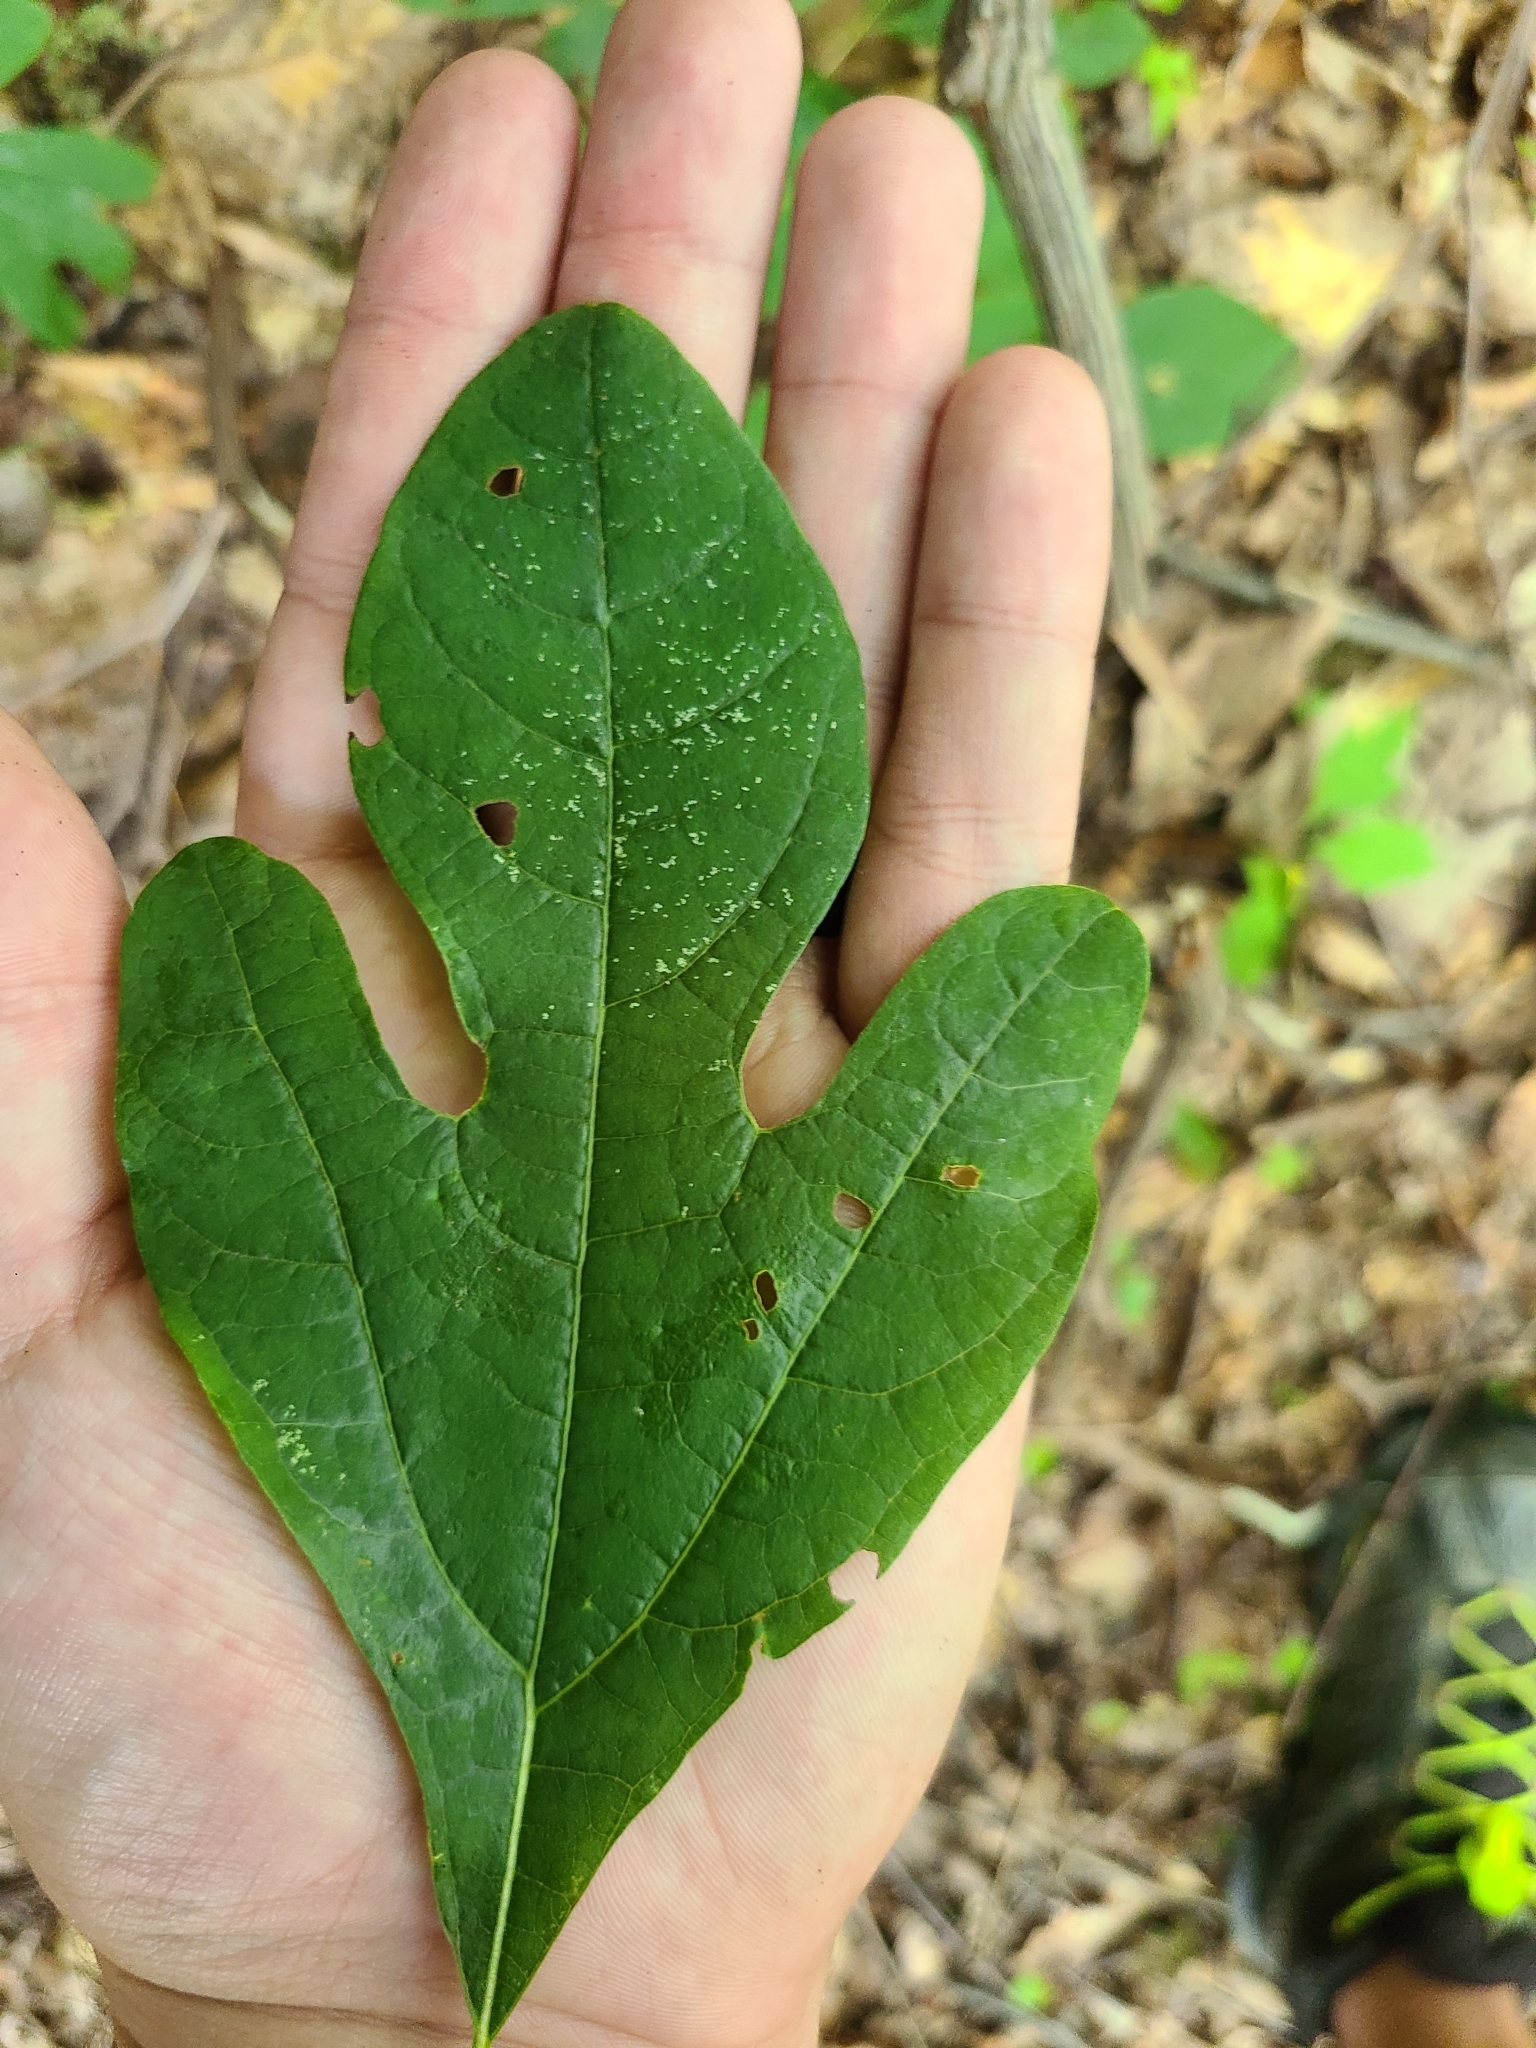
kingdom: Plantae
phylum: Tracheophyta
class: Magnoliopsida
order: Laurales
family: Lauraceae
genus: Sassafras
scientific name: Sassafras albidum
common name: Sassafras
